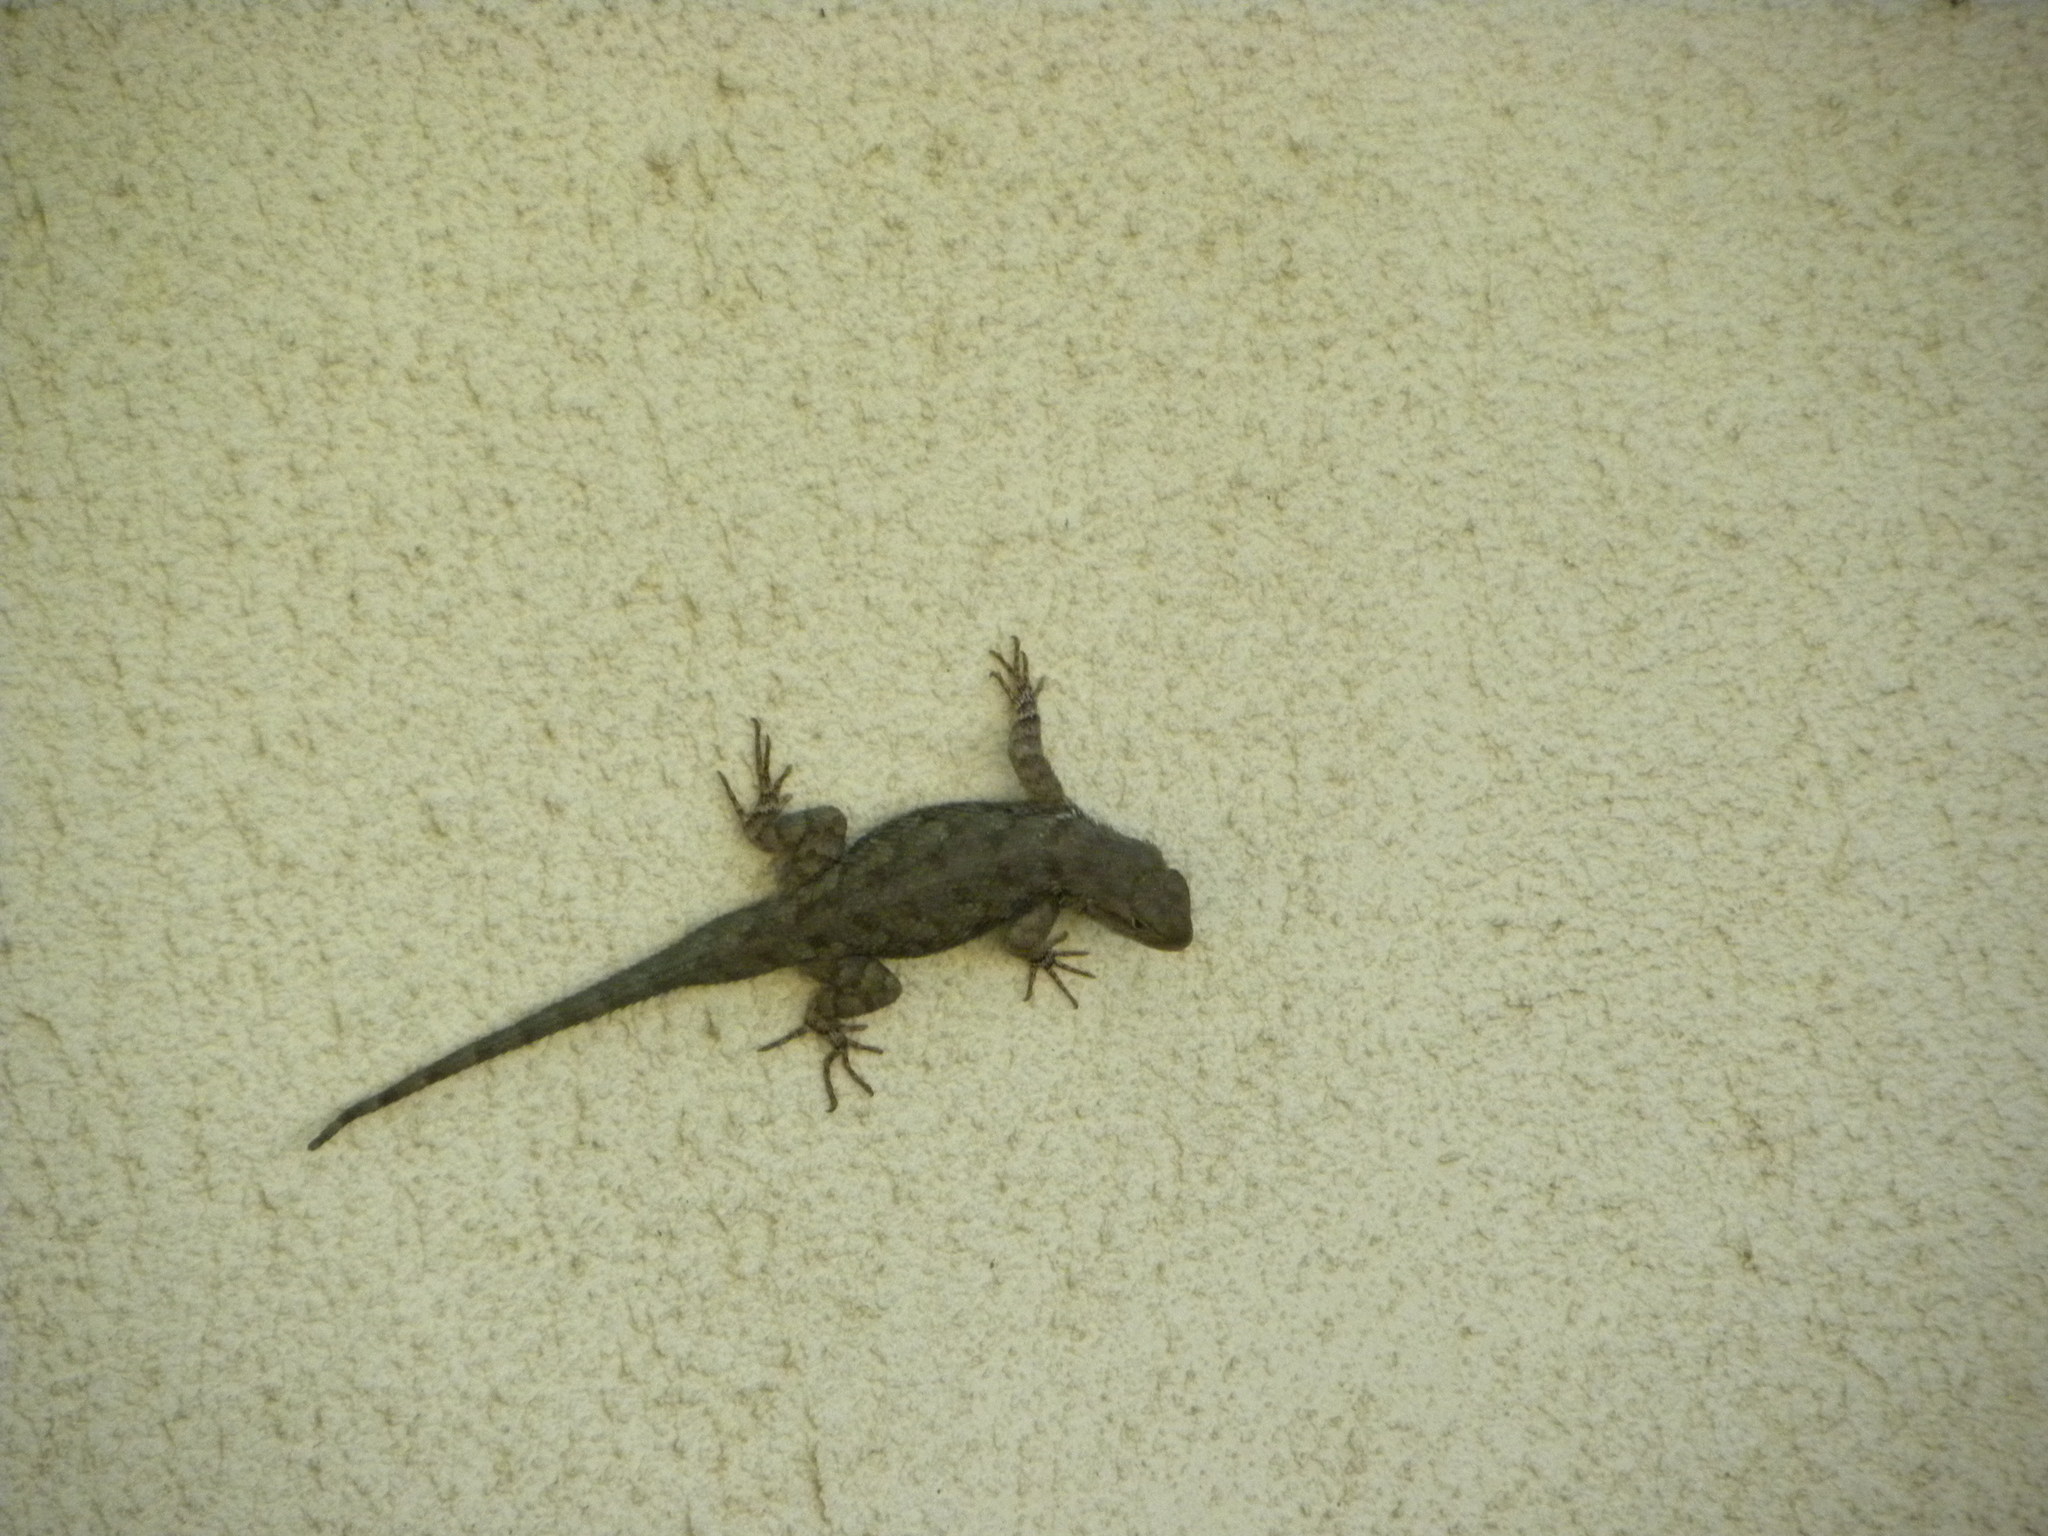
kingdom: Animalia
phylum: Chordata
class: Squamata
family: Phrynosomatidae
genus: Sceloporus
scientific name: Sceloporus clarkii
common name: Clark's spiny lizard
